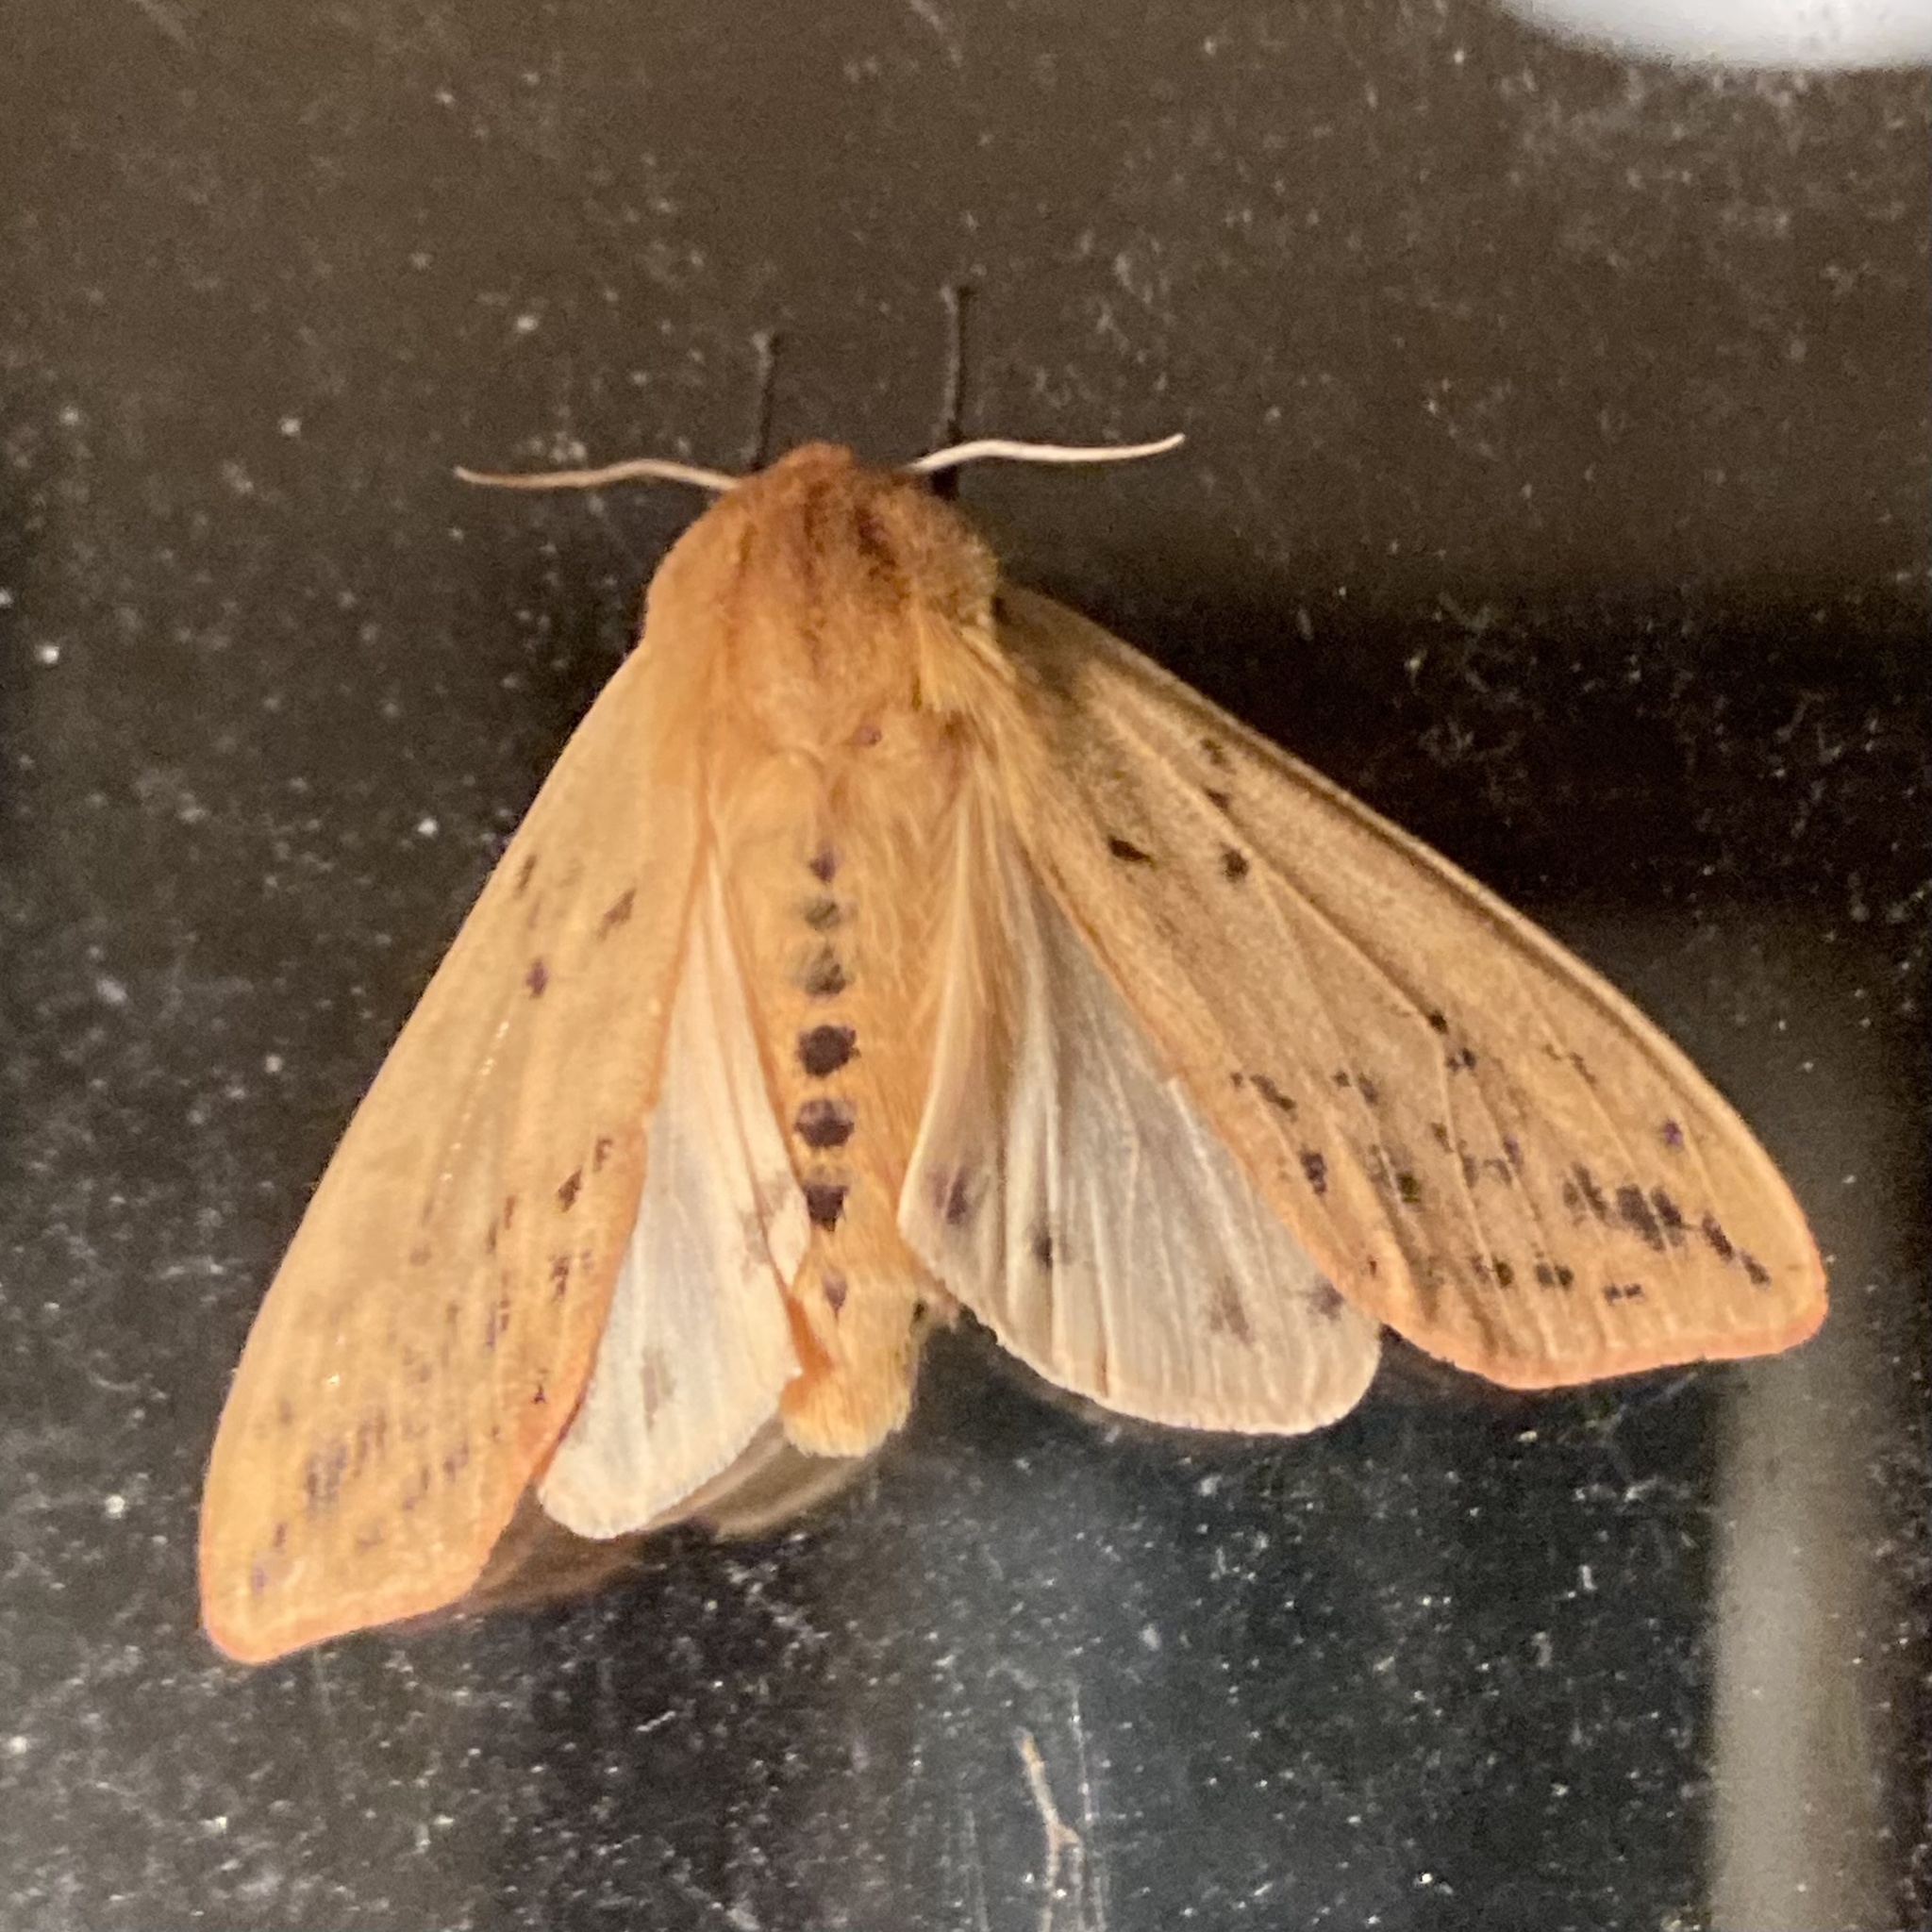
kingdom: Animalia
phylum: Arthropoda
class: Insecta
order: Lepidoptera
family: Erebidae
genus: Pyrrharctia
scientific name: Pyrrharctia isabella
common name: Isabella tiger moth
